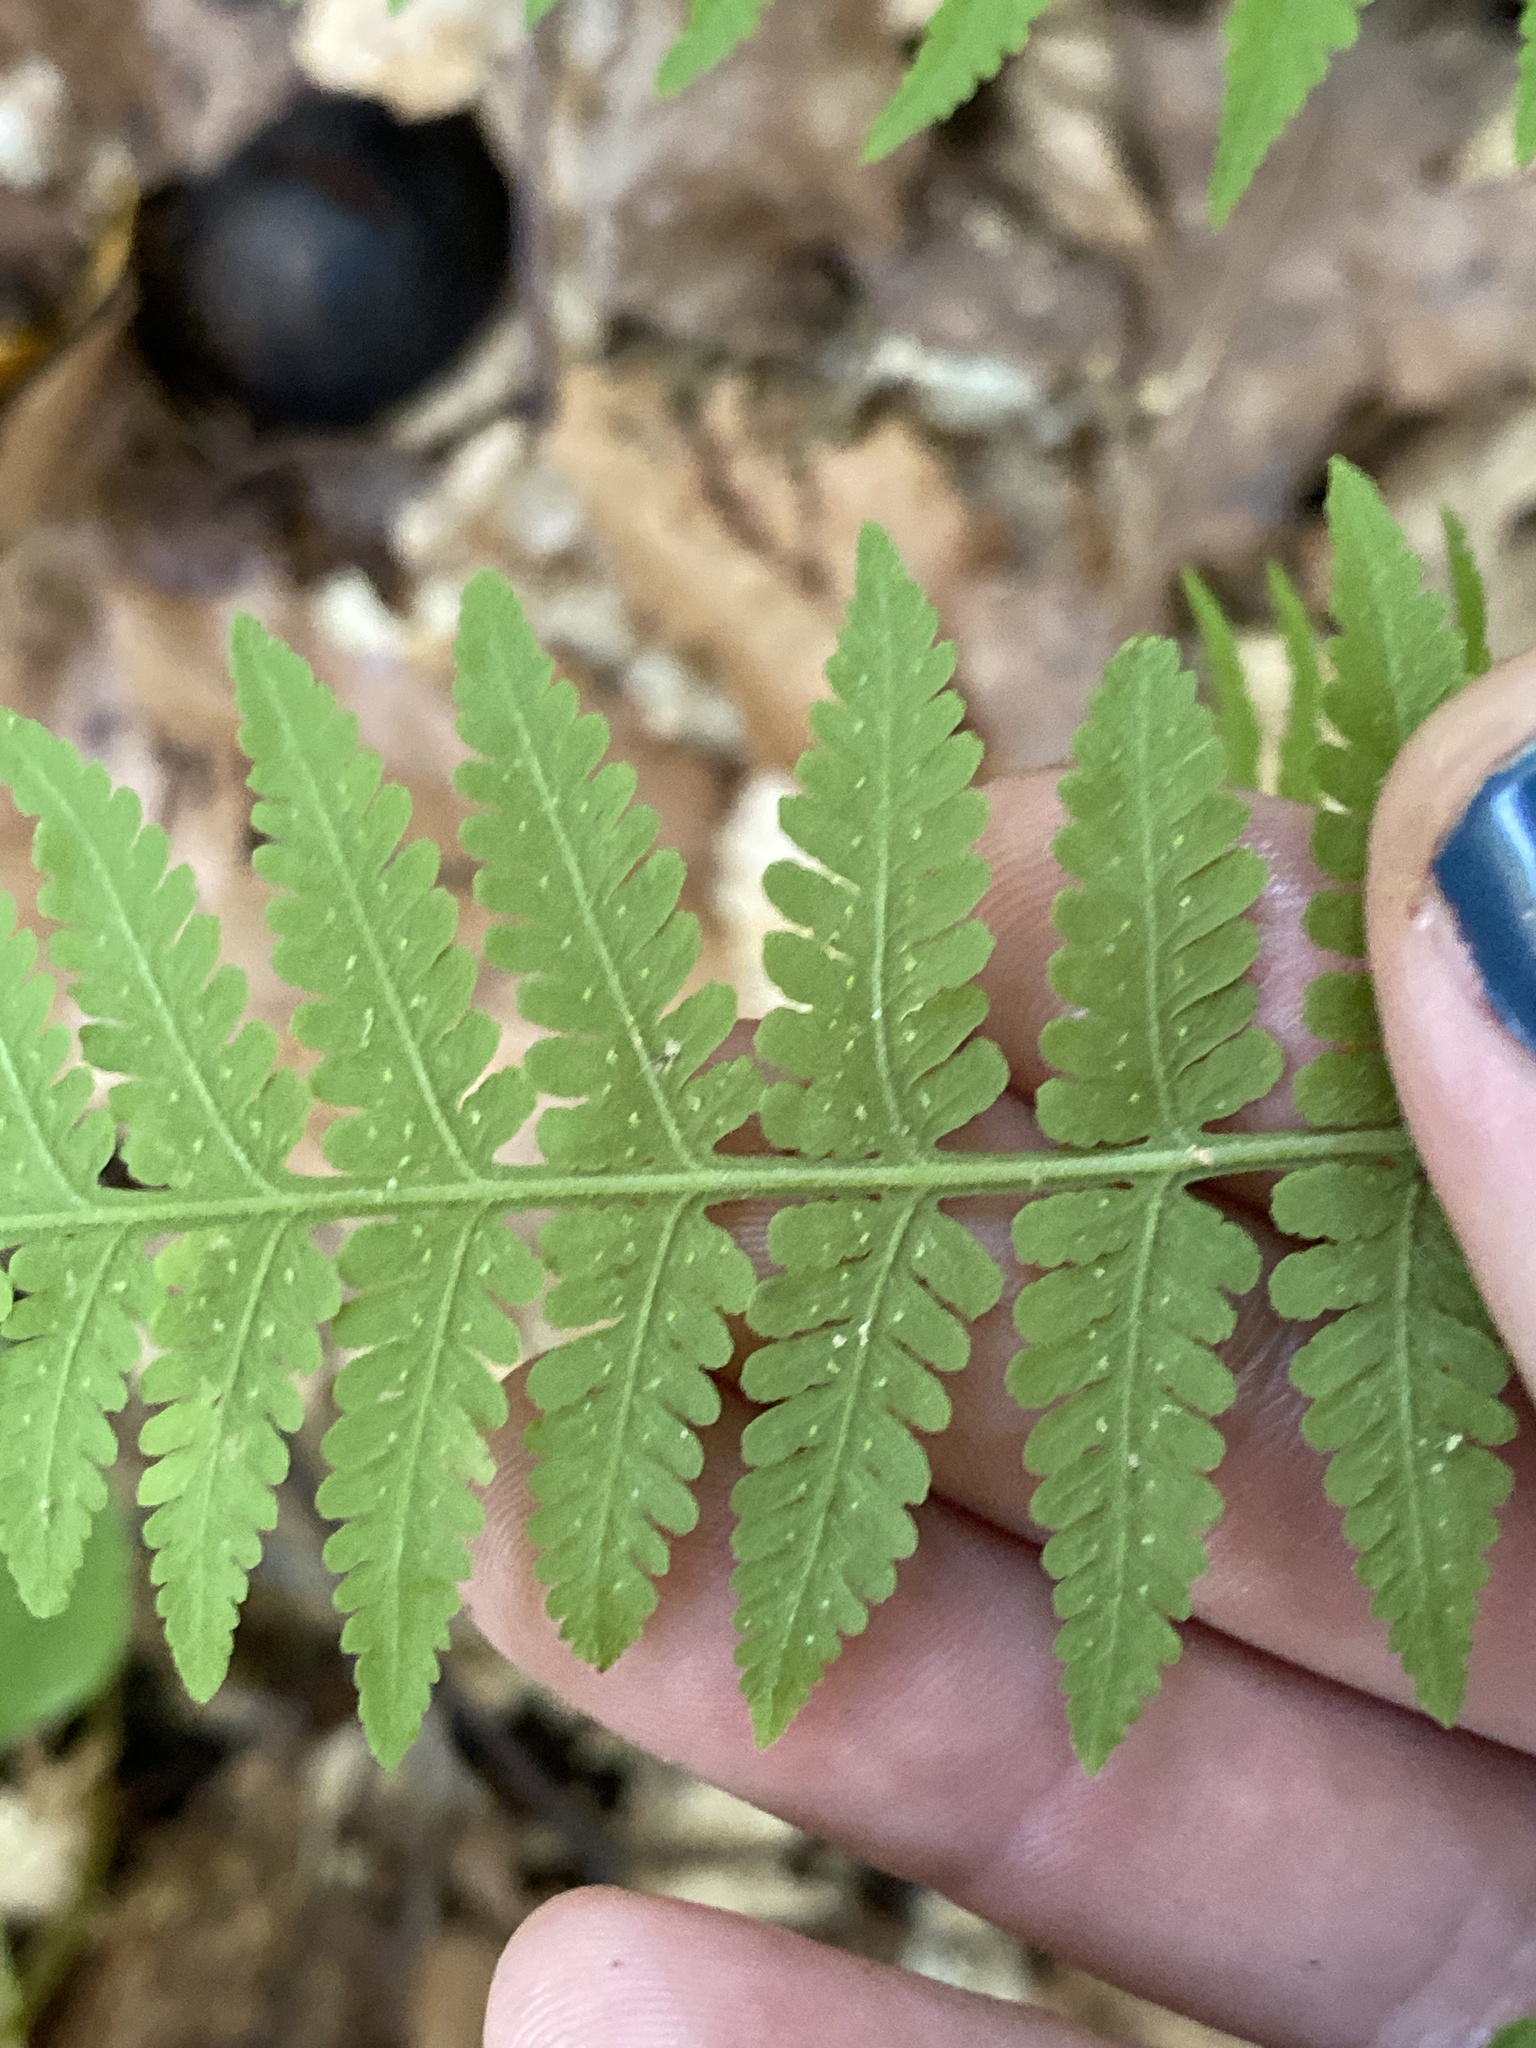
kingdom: Plantae
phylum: Tracheophyta
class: Polypodiopsida
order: Polypodiales
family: Thelypteridaceae
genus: Macrothelypteris
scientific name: Macrothelypteris torresiana
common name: Swordfern
